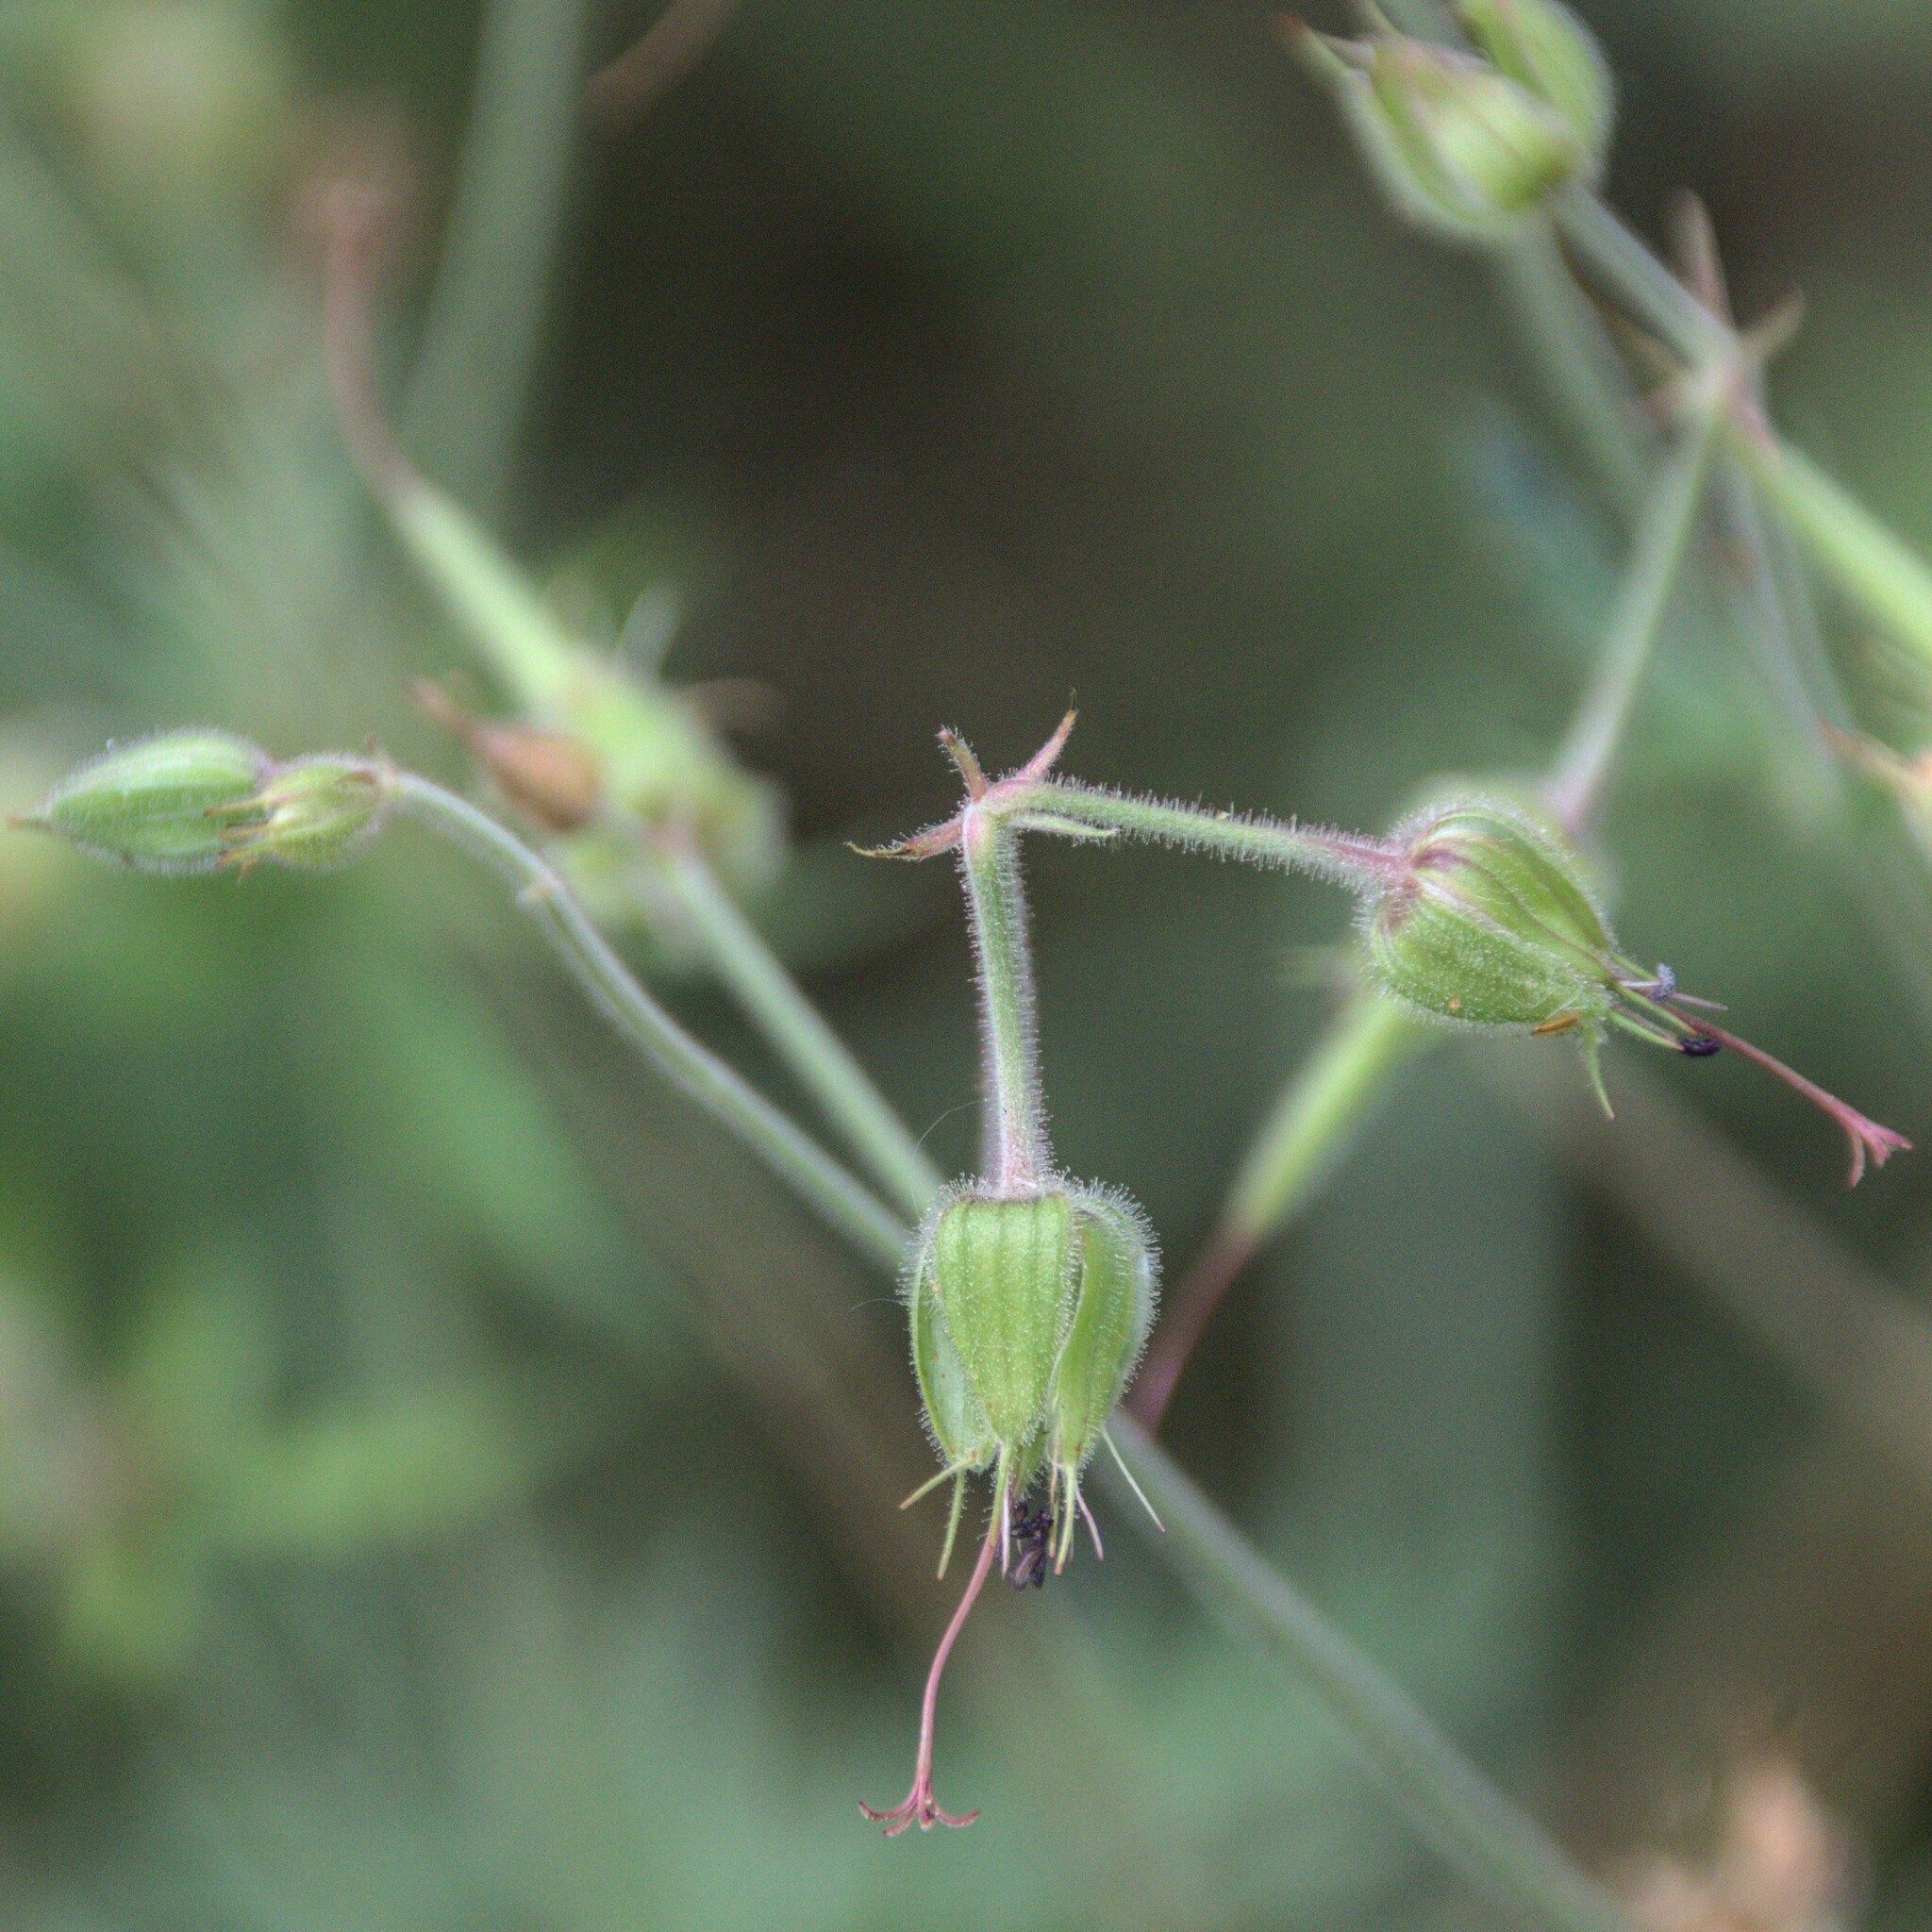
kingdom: Plantae
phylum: Tracheophyta
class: Magnoliopsida
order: Geraniales
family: Geraniaceae
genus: Geranium
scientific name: Geranium pratense
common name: Meadow crane's-bill
